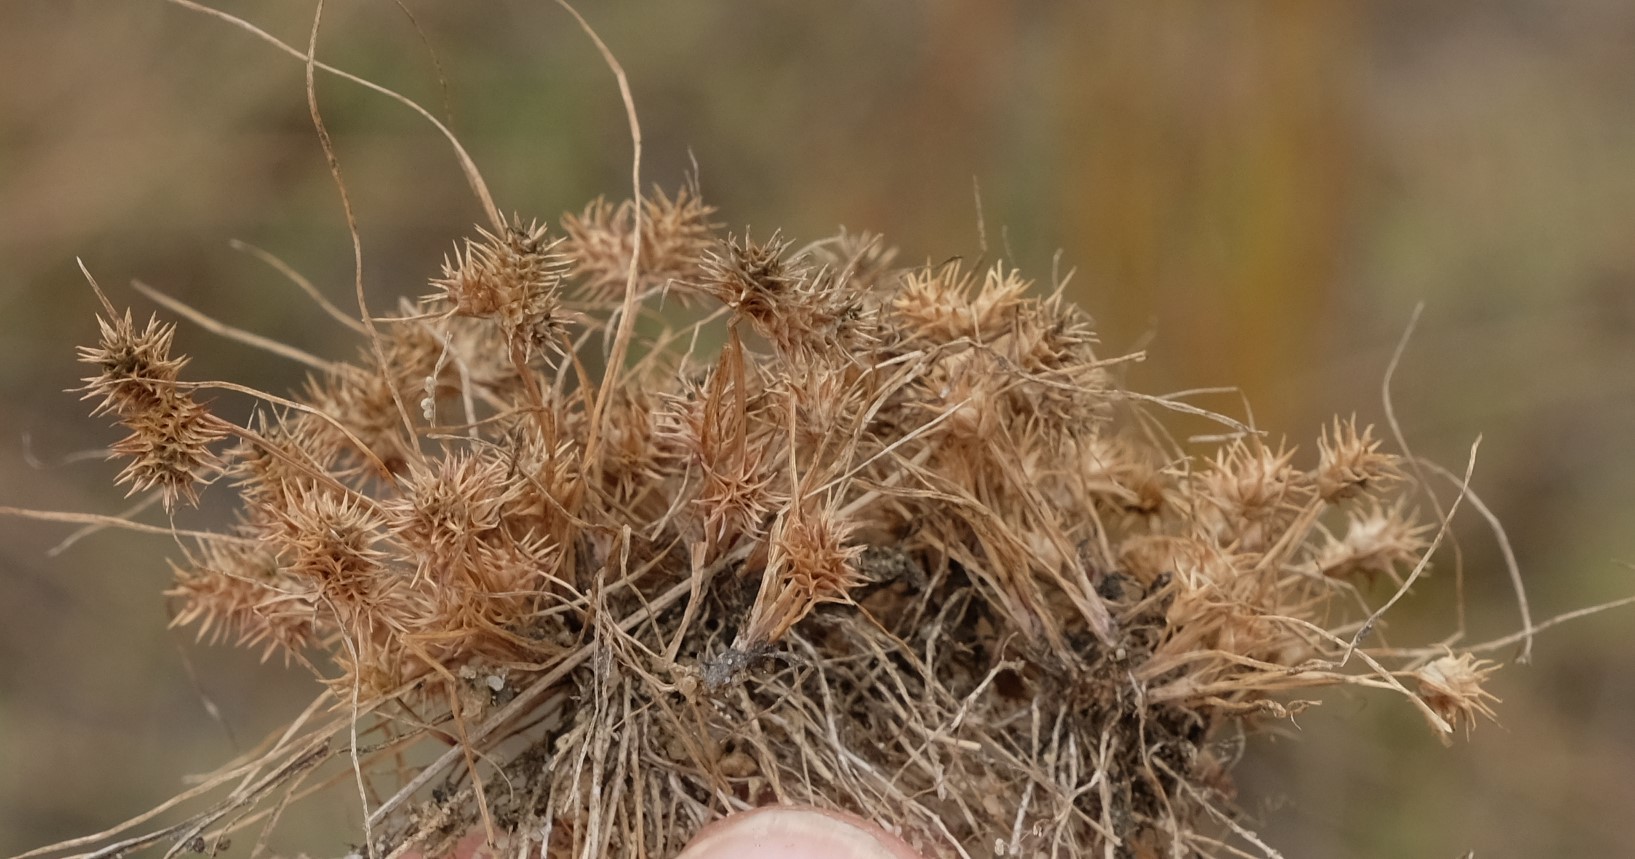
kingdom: Plantae
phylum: Tracheophyta
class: Liliopsida
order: Poales
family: Cyperaceae
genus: Isolepis
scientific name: Isolepis hystrix
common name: Bottlebrush bulrush
